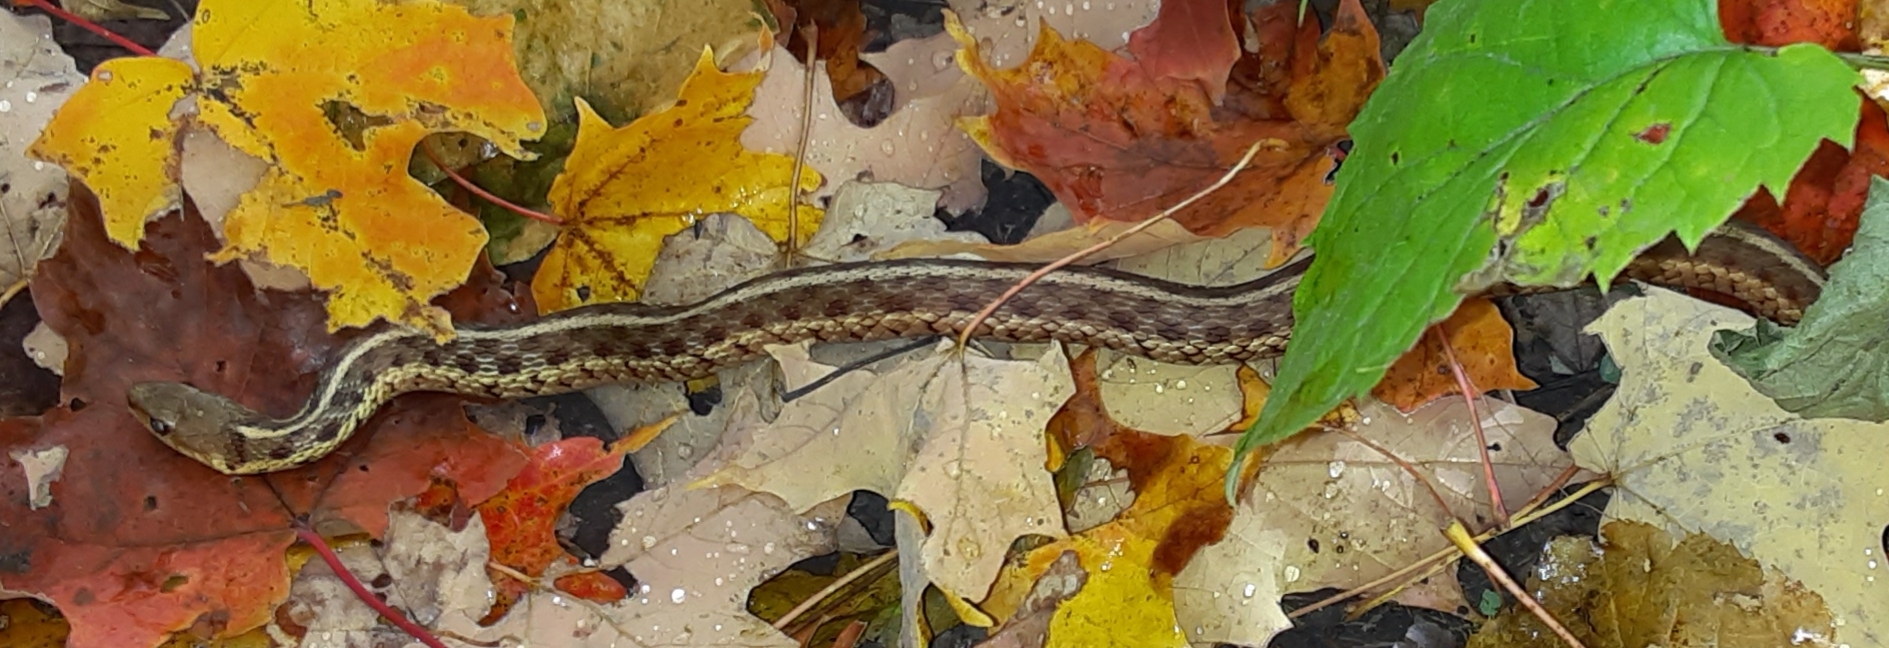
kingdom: Animalia
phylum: Chordata
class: Squamata
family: Colubridae
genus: Thamnophis
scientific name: Thamnophis sirtalis
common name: Common garter snake
